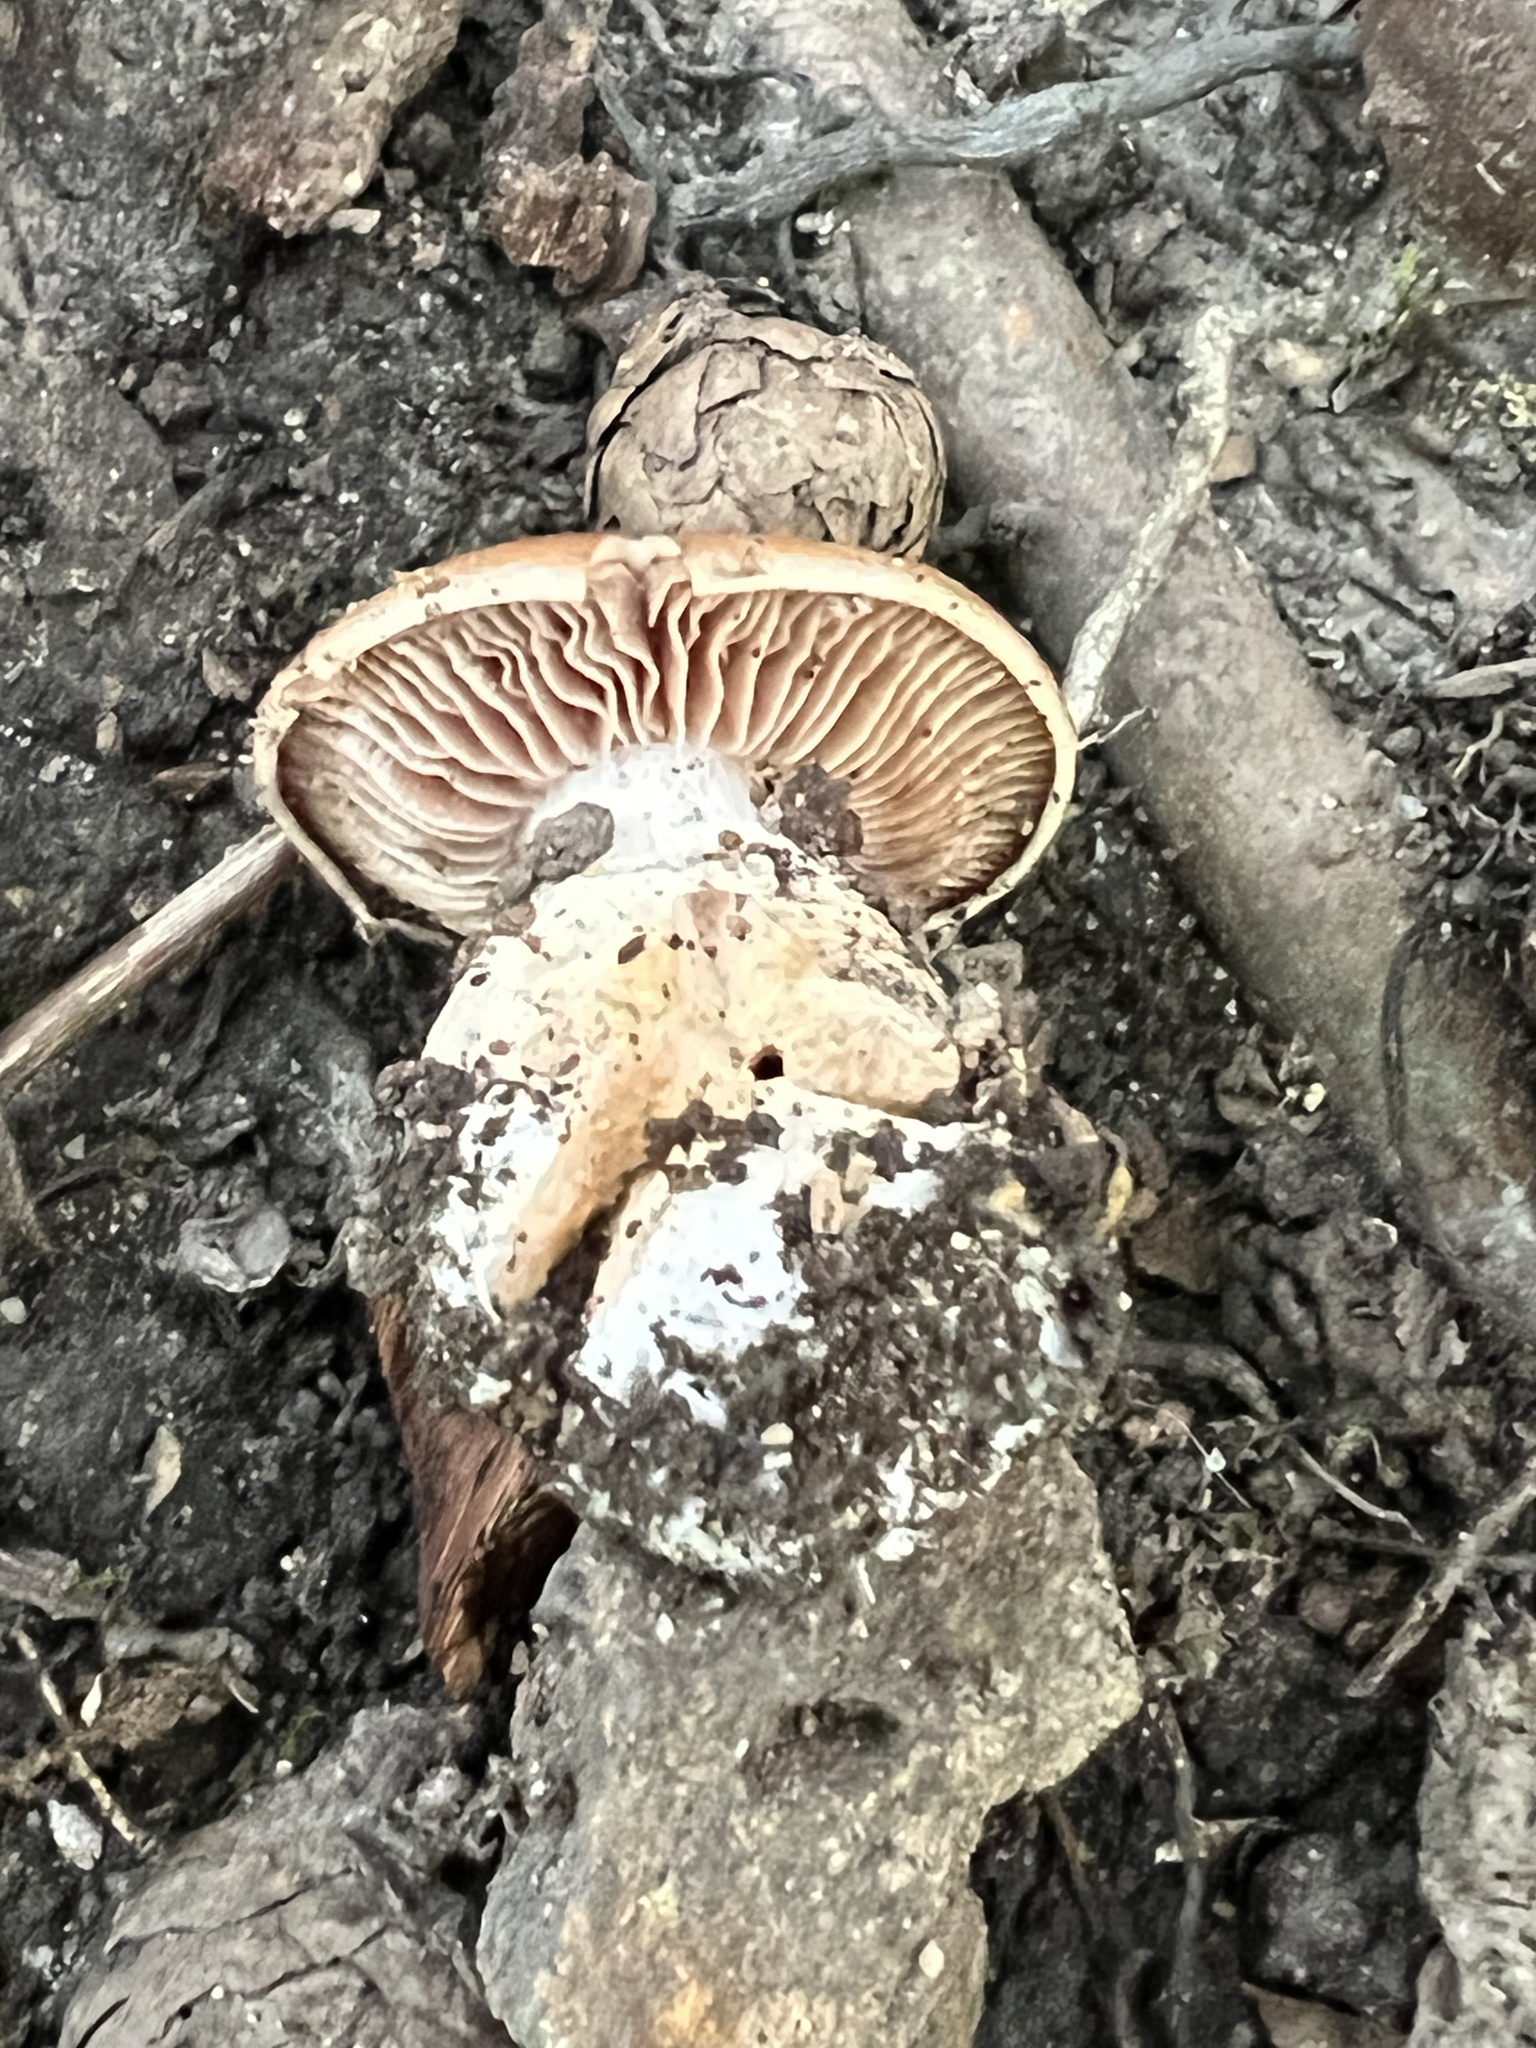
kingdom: Fungi
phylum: Basidiomycota
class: Agaricomycetes
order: Agaricales
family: Cortinariaceae
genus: Cortinarius
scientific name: Cortinarius quercophilus
